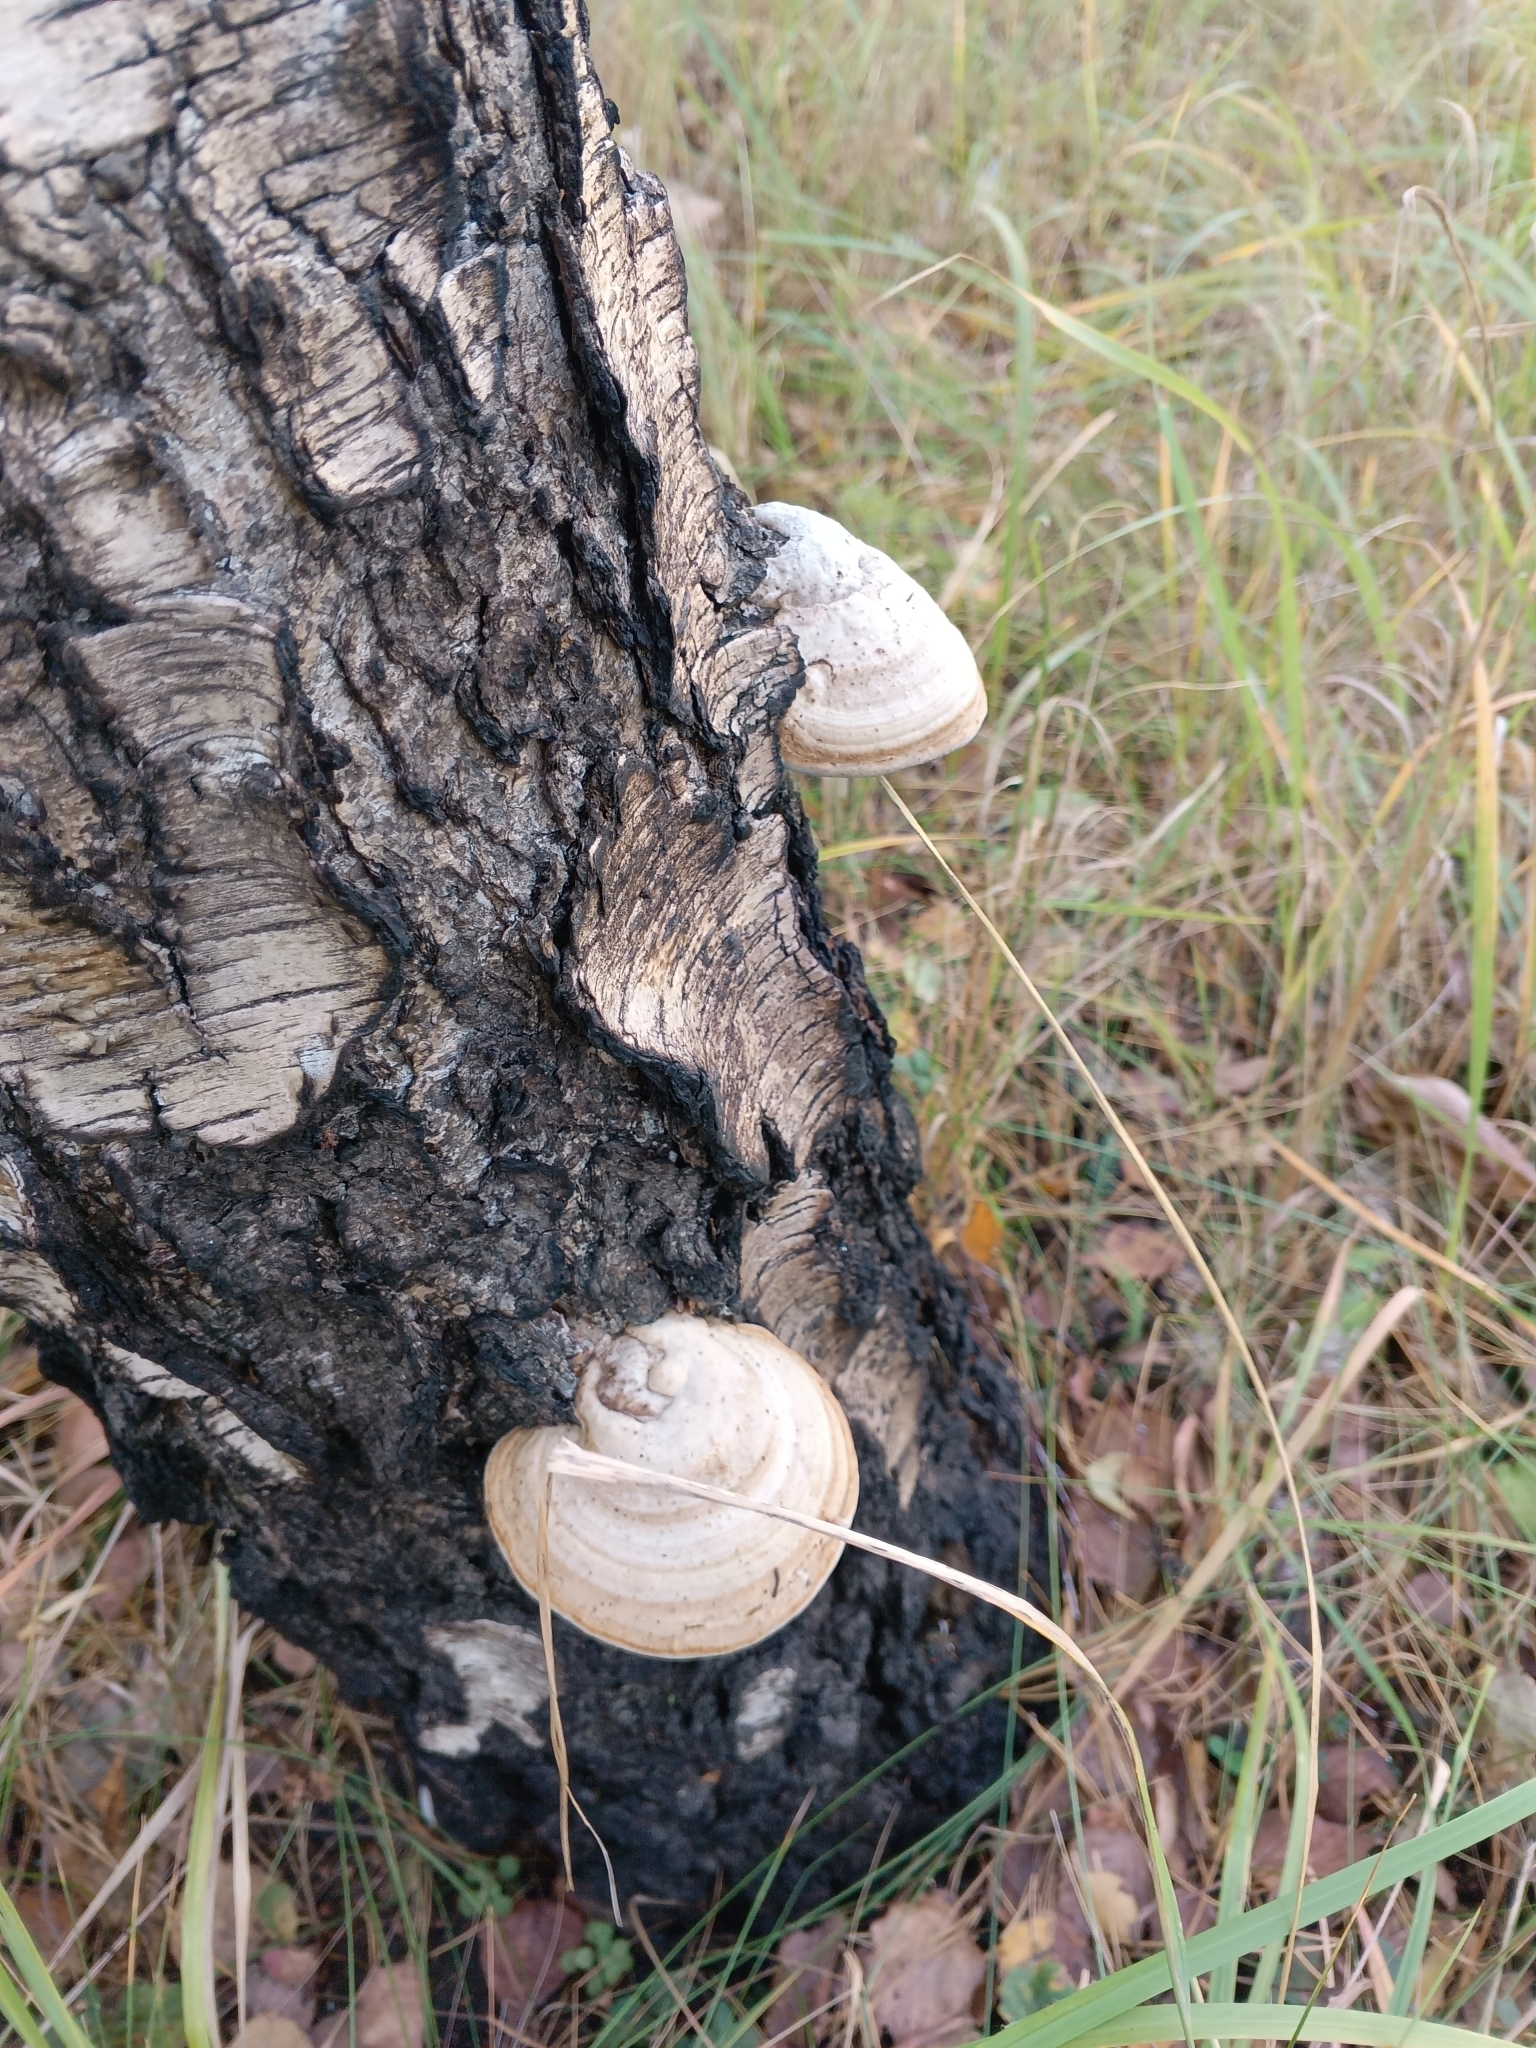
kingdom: Fungi
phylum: Basidiomycota
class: Agaricomycetes
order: Polyporales
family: Polyporaceae
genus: Fomes
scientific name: Fomes fomentarius
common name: Hoof fungus
